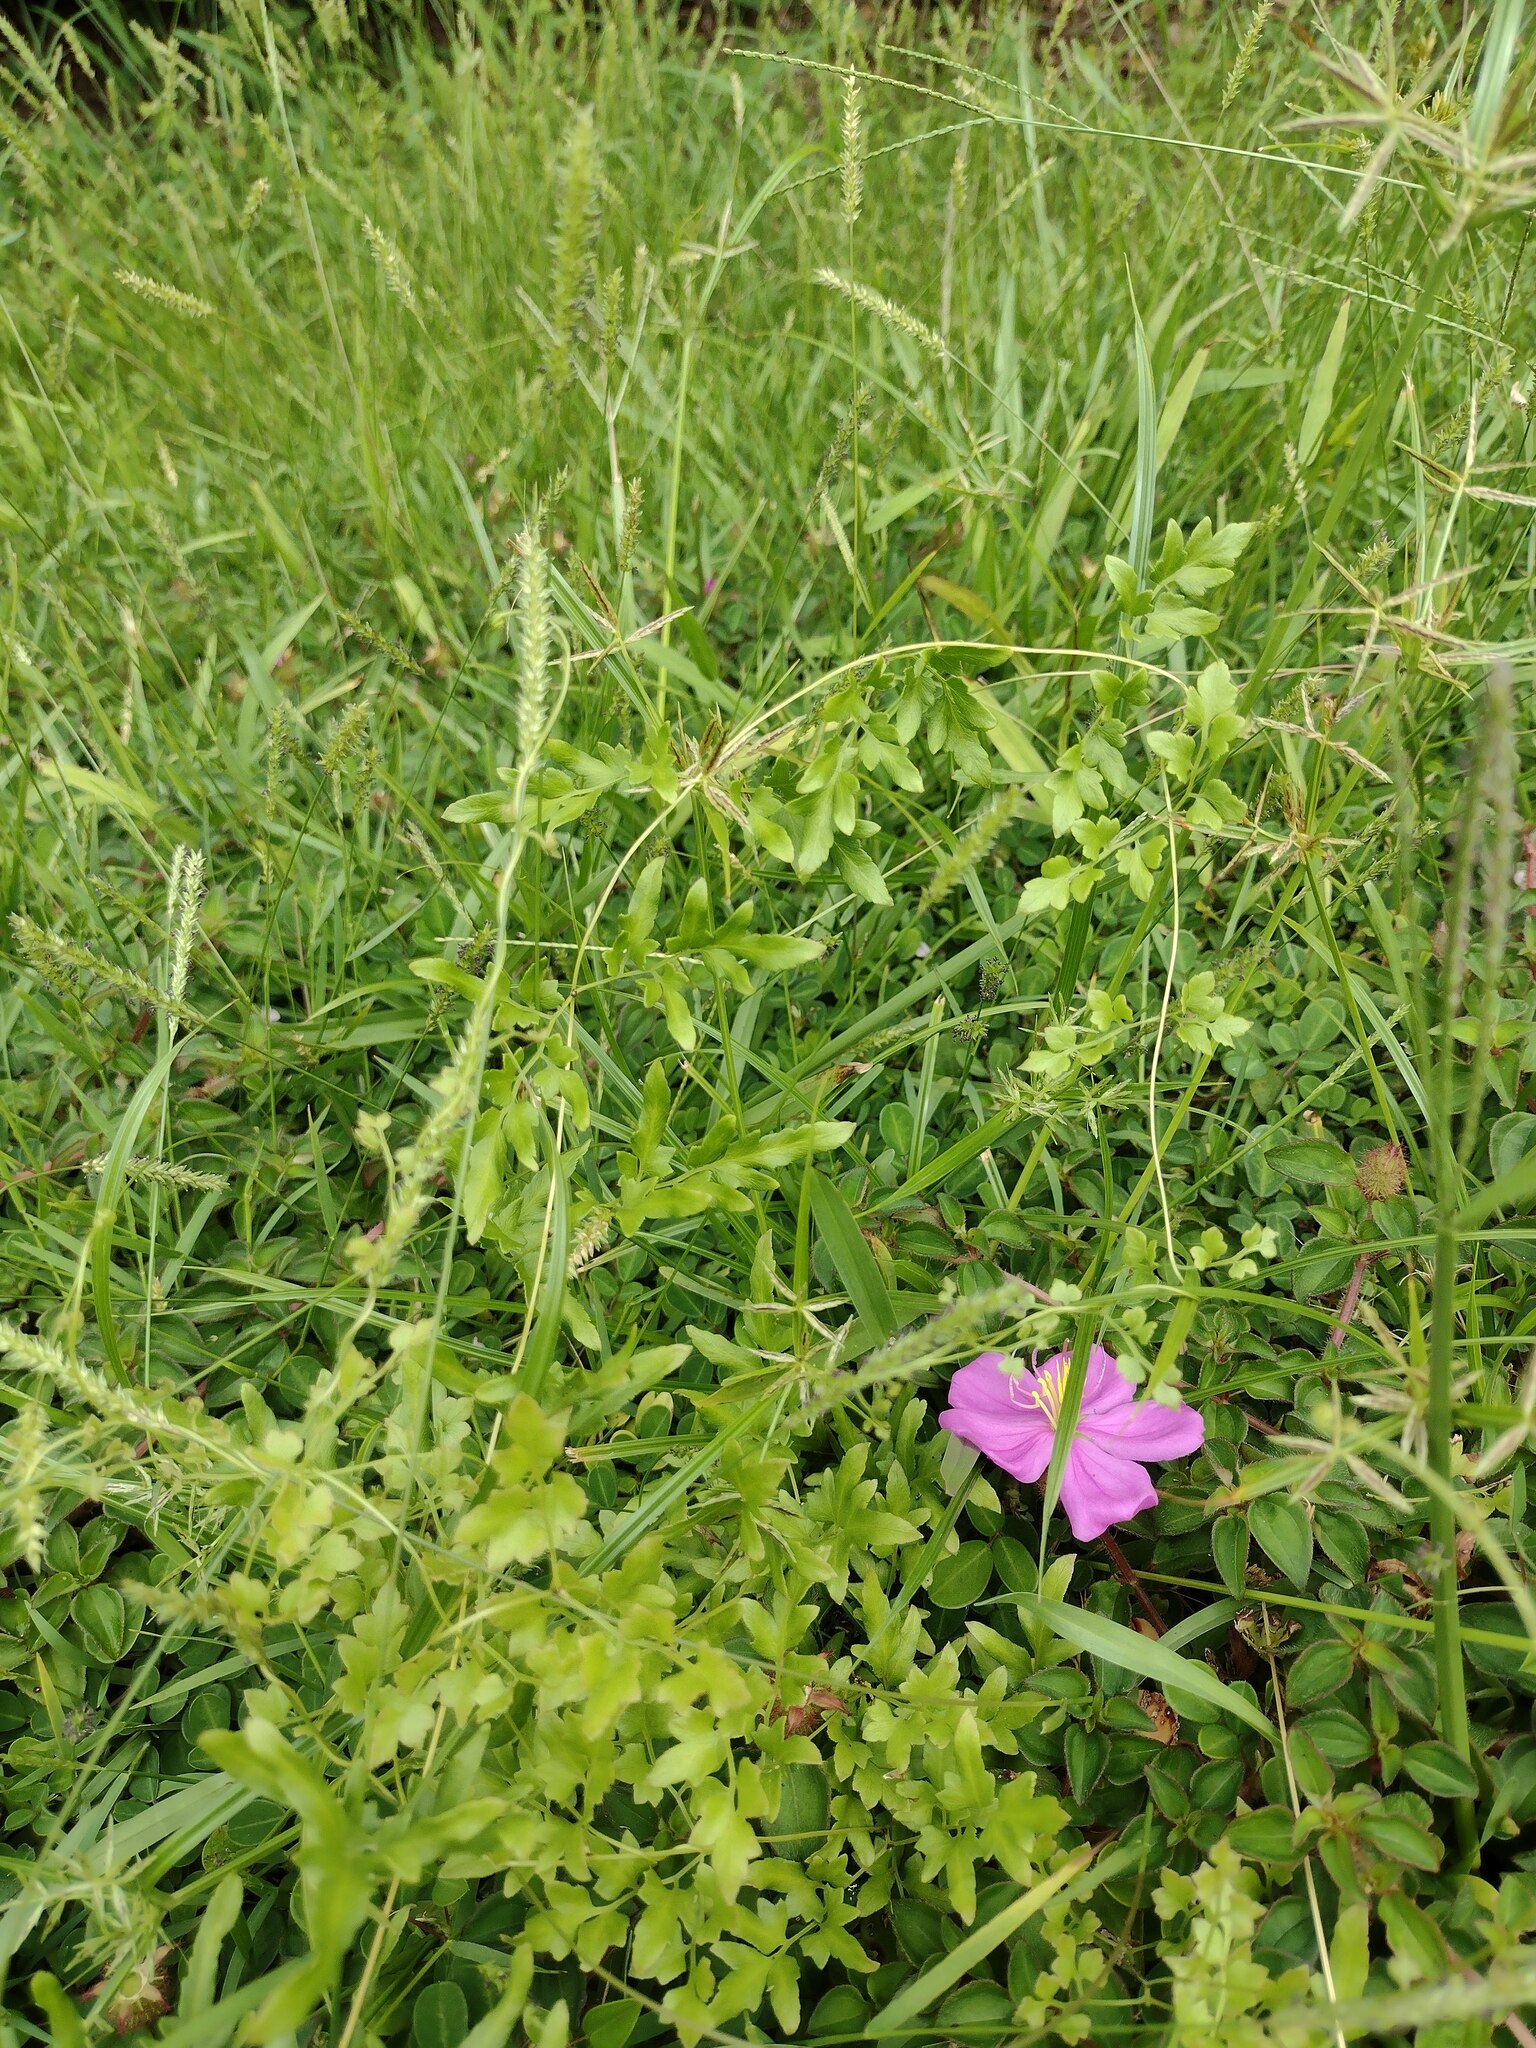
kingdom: Plantae
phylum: Tracheophyta
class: Polypodiopsida
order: Schizaeales
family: Lygodiaceae
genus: Lygodium
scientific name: Lygodium japonicum
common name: Japanese climbing fern
